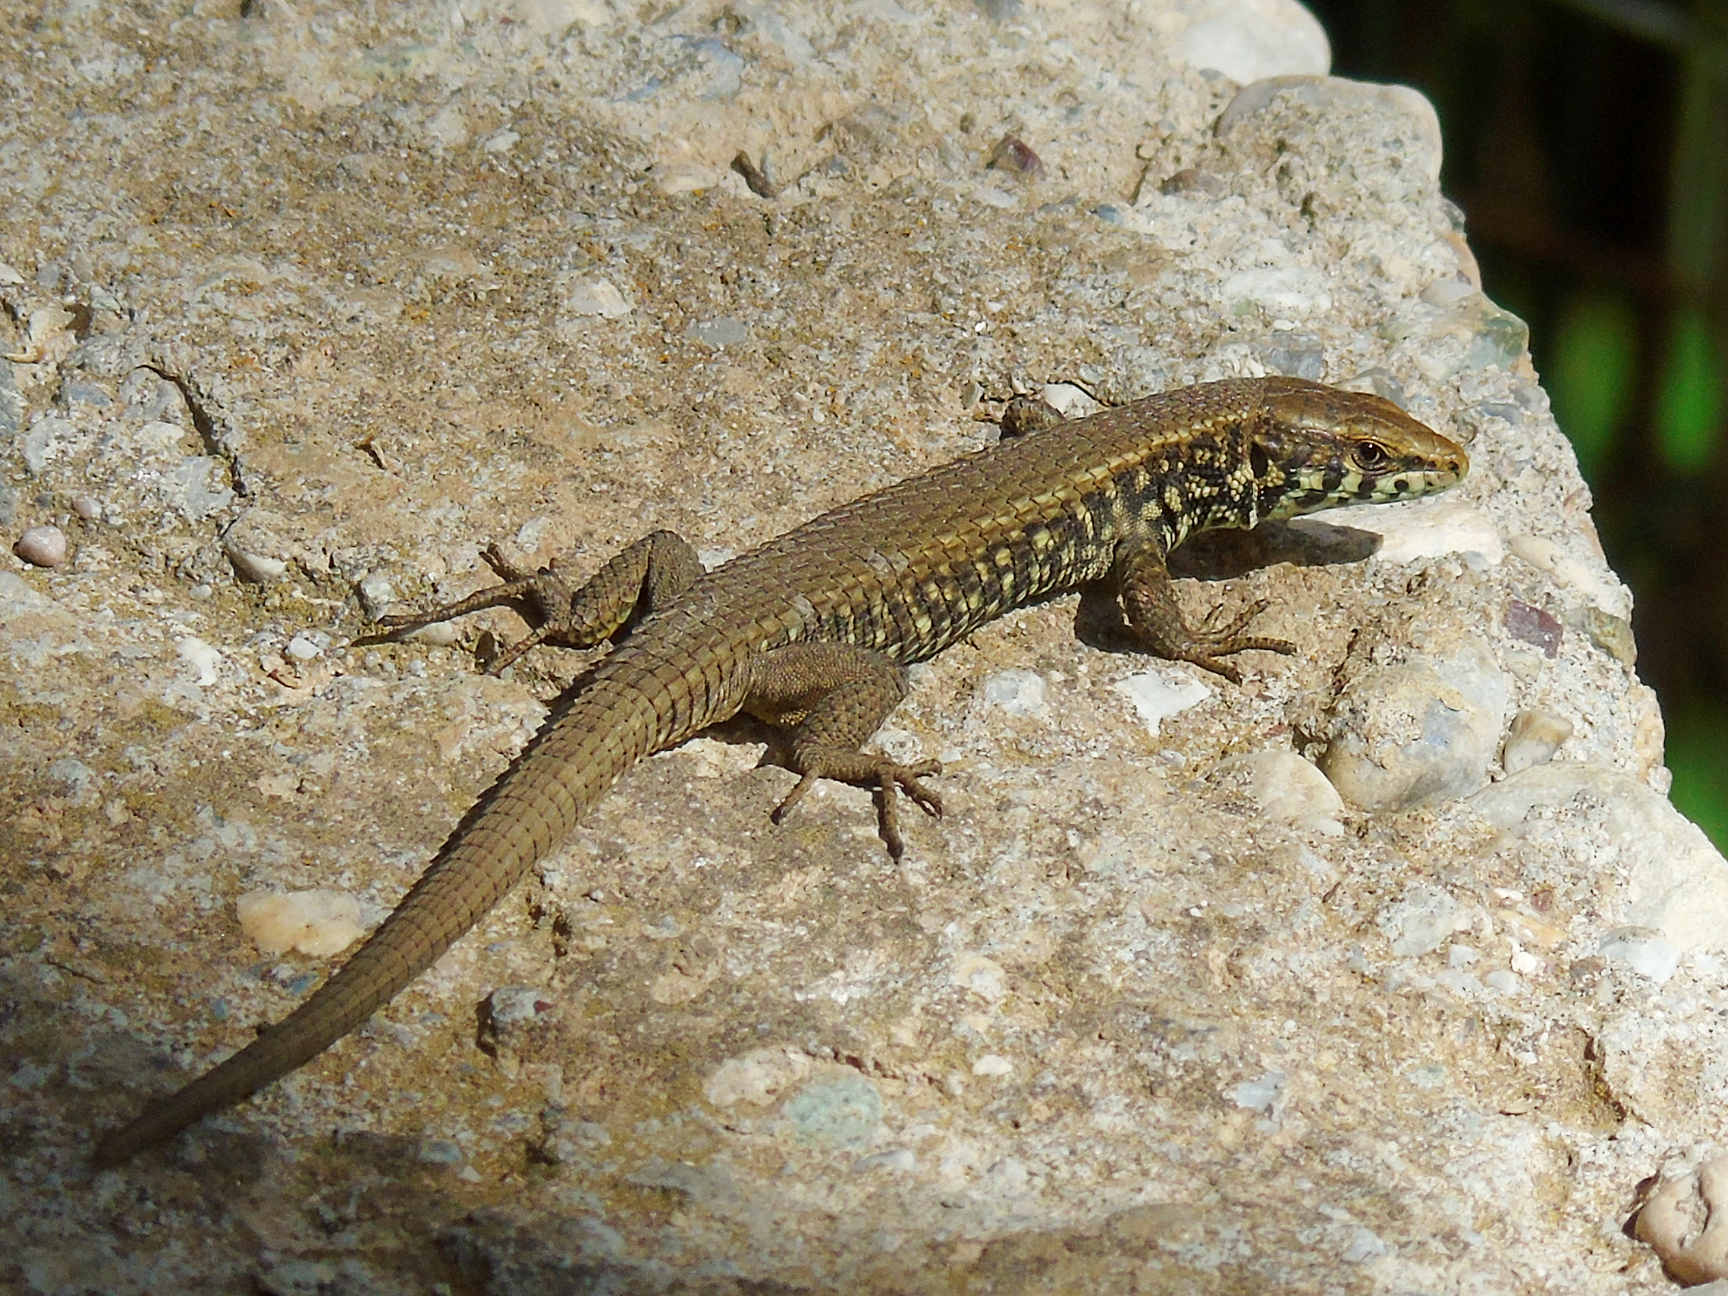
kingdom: Animalia
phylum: Chordata
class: Squamata
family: Lacertidae
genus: Algyroides
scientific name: Algyroides moreoticus
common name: Greek algyroides
